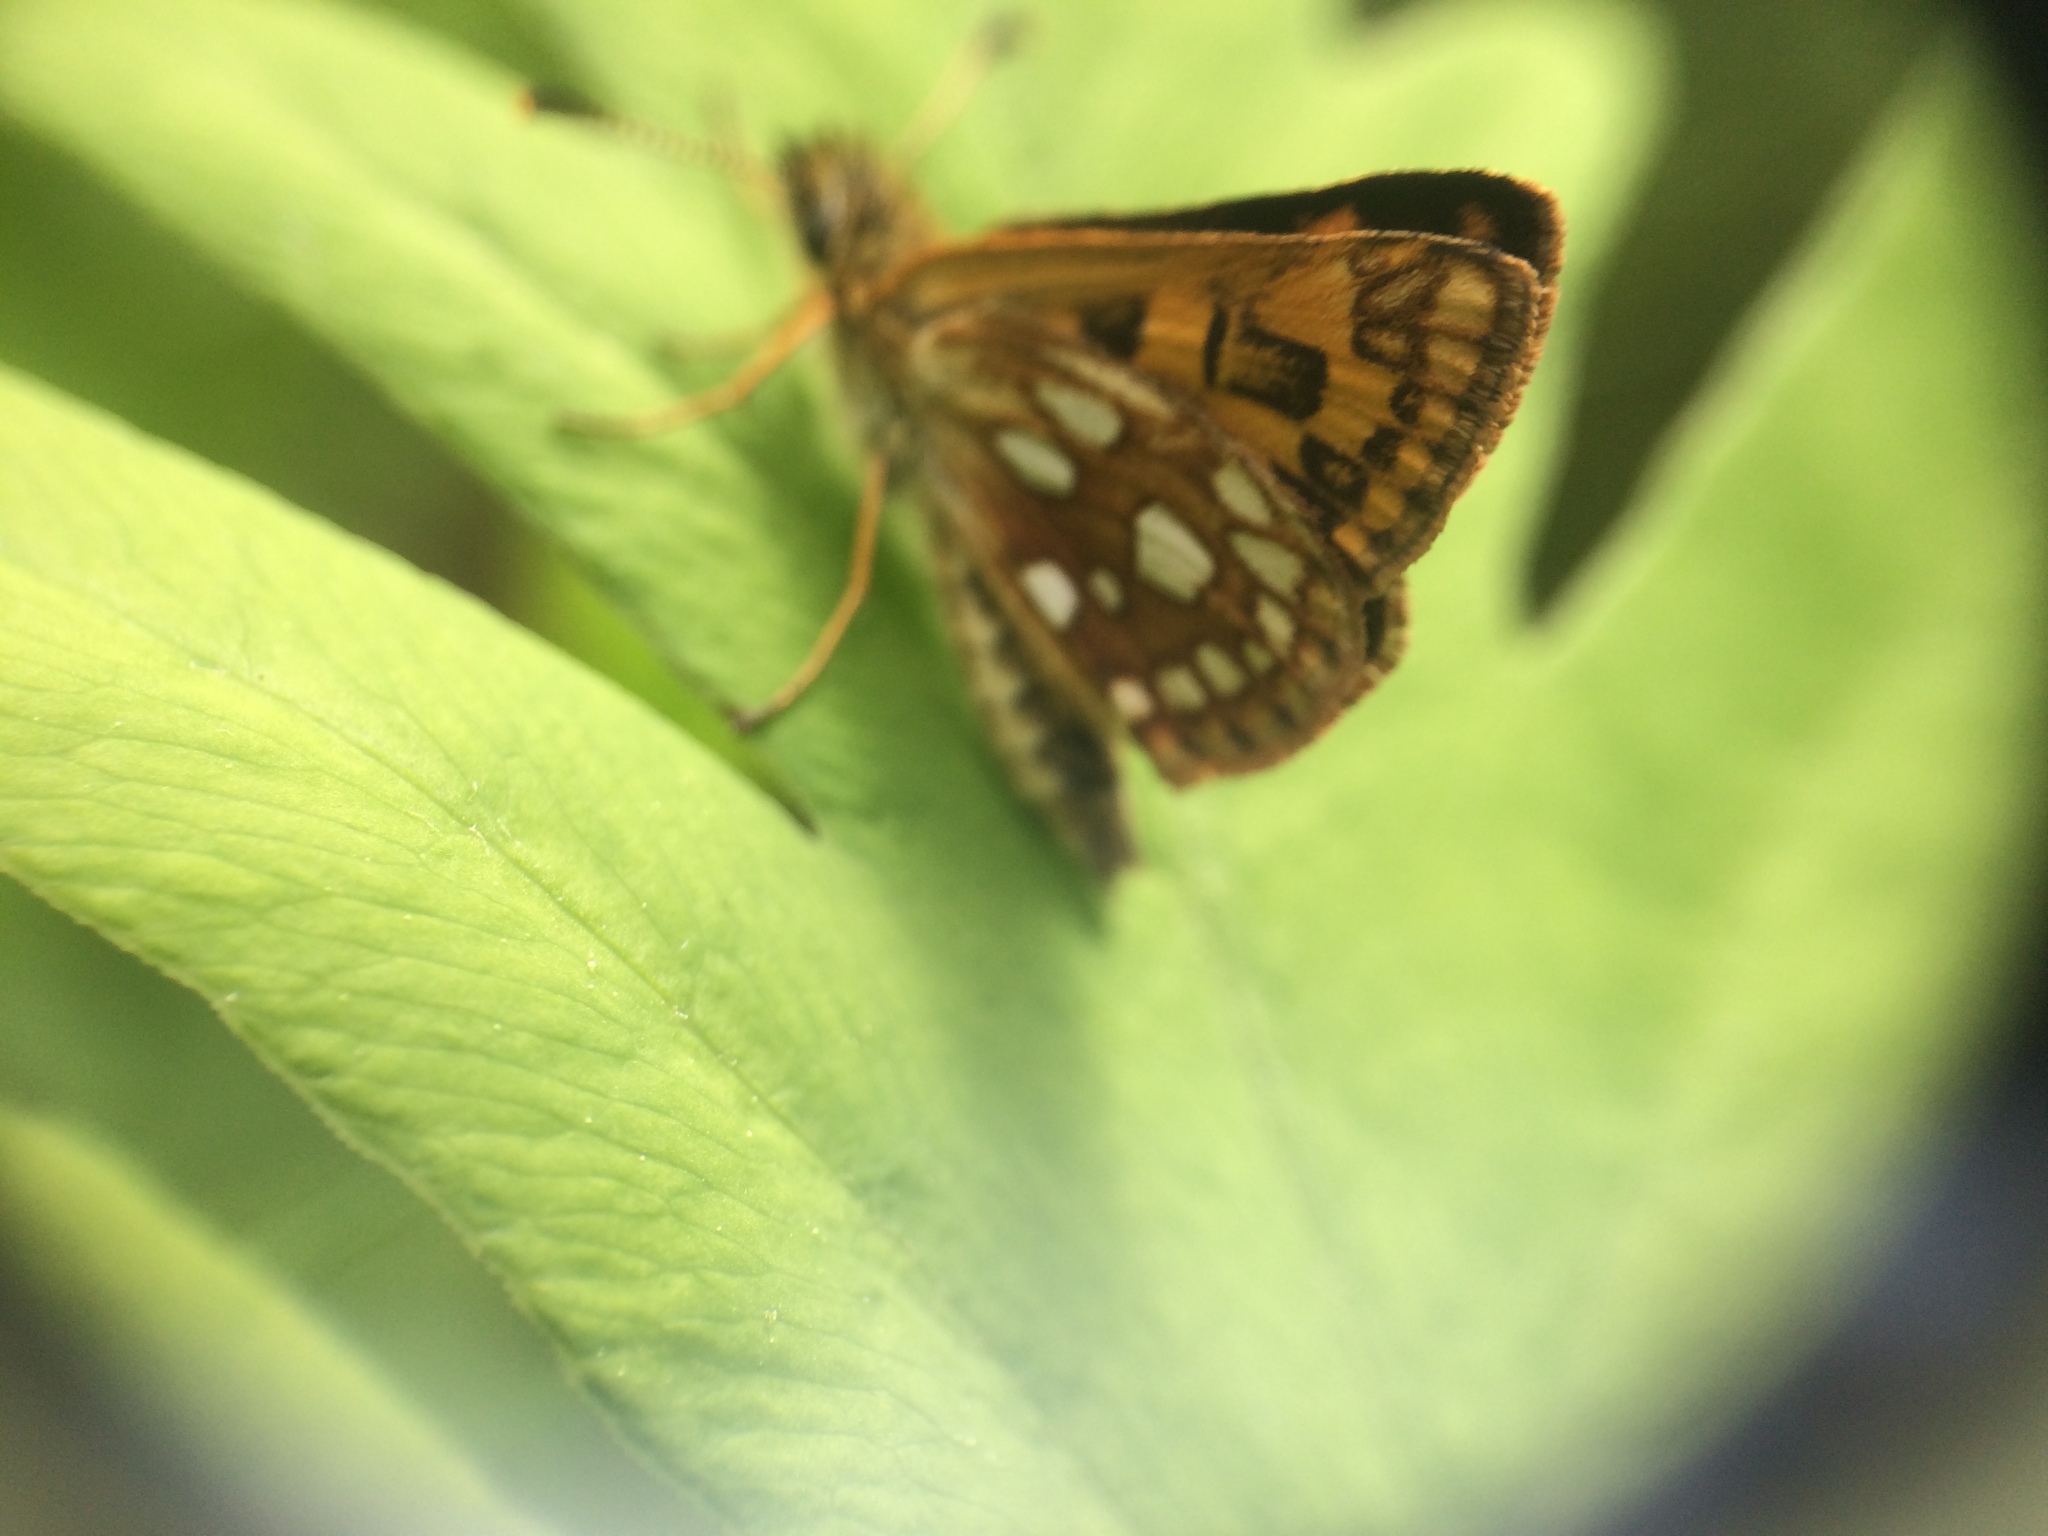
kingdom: Animalia
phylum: Arthropoda
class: Insecta
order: Lepidoptera
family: Hesperiidae
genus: Carterocephalus
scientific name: Carterocephalus mandan
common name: Arctic skipperling
